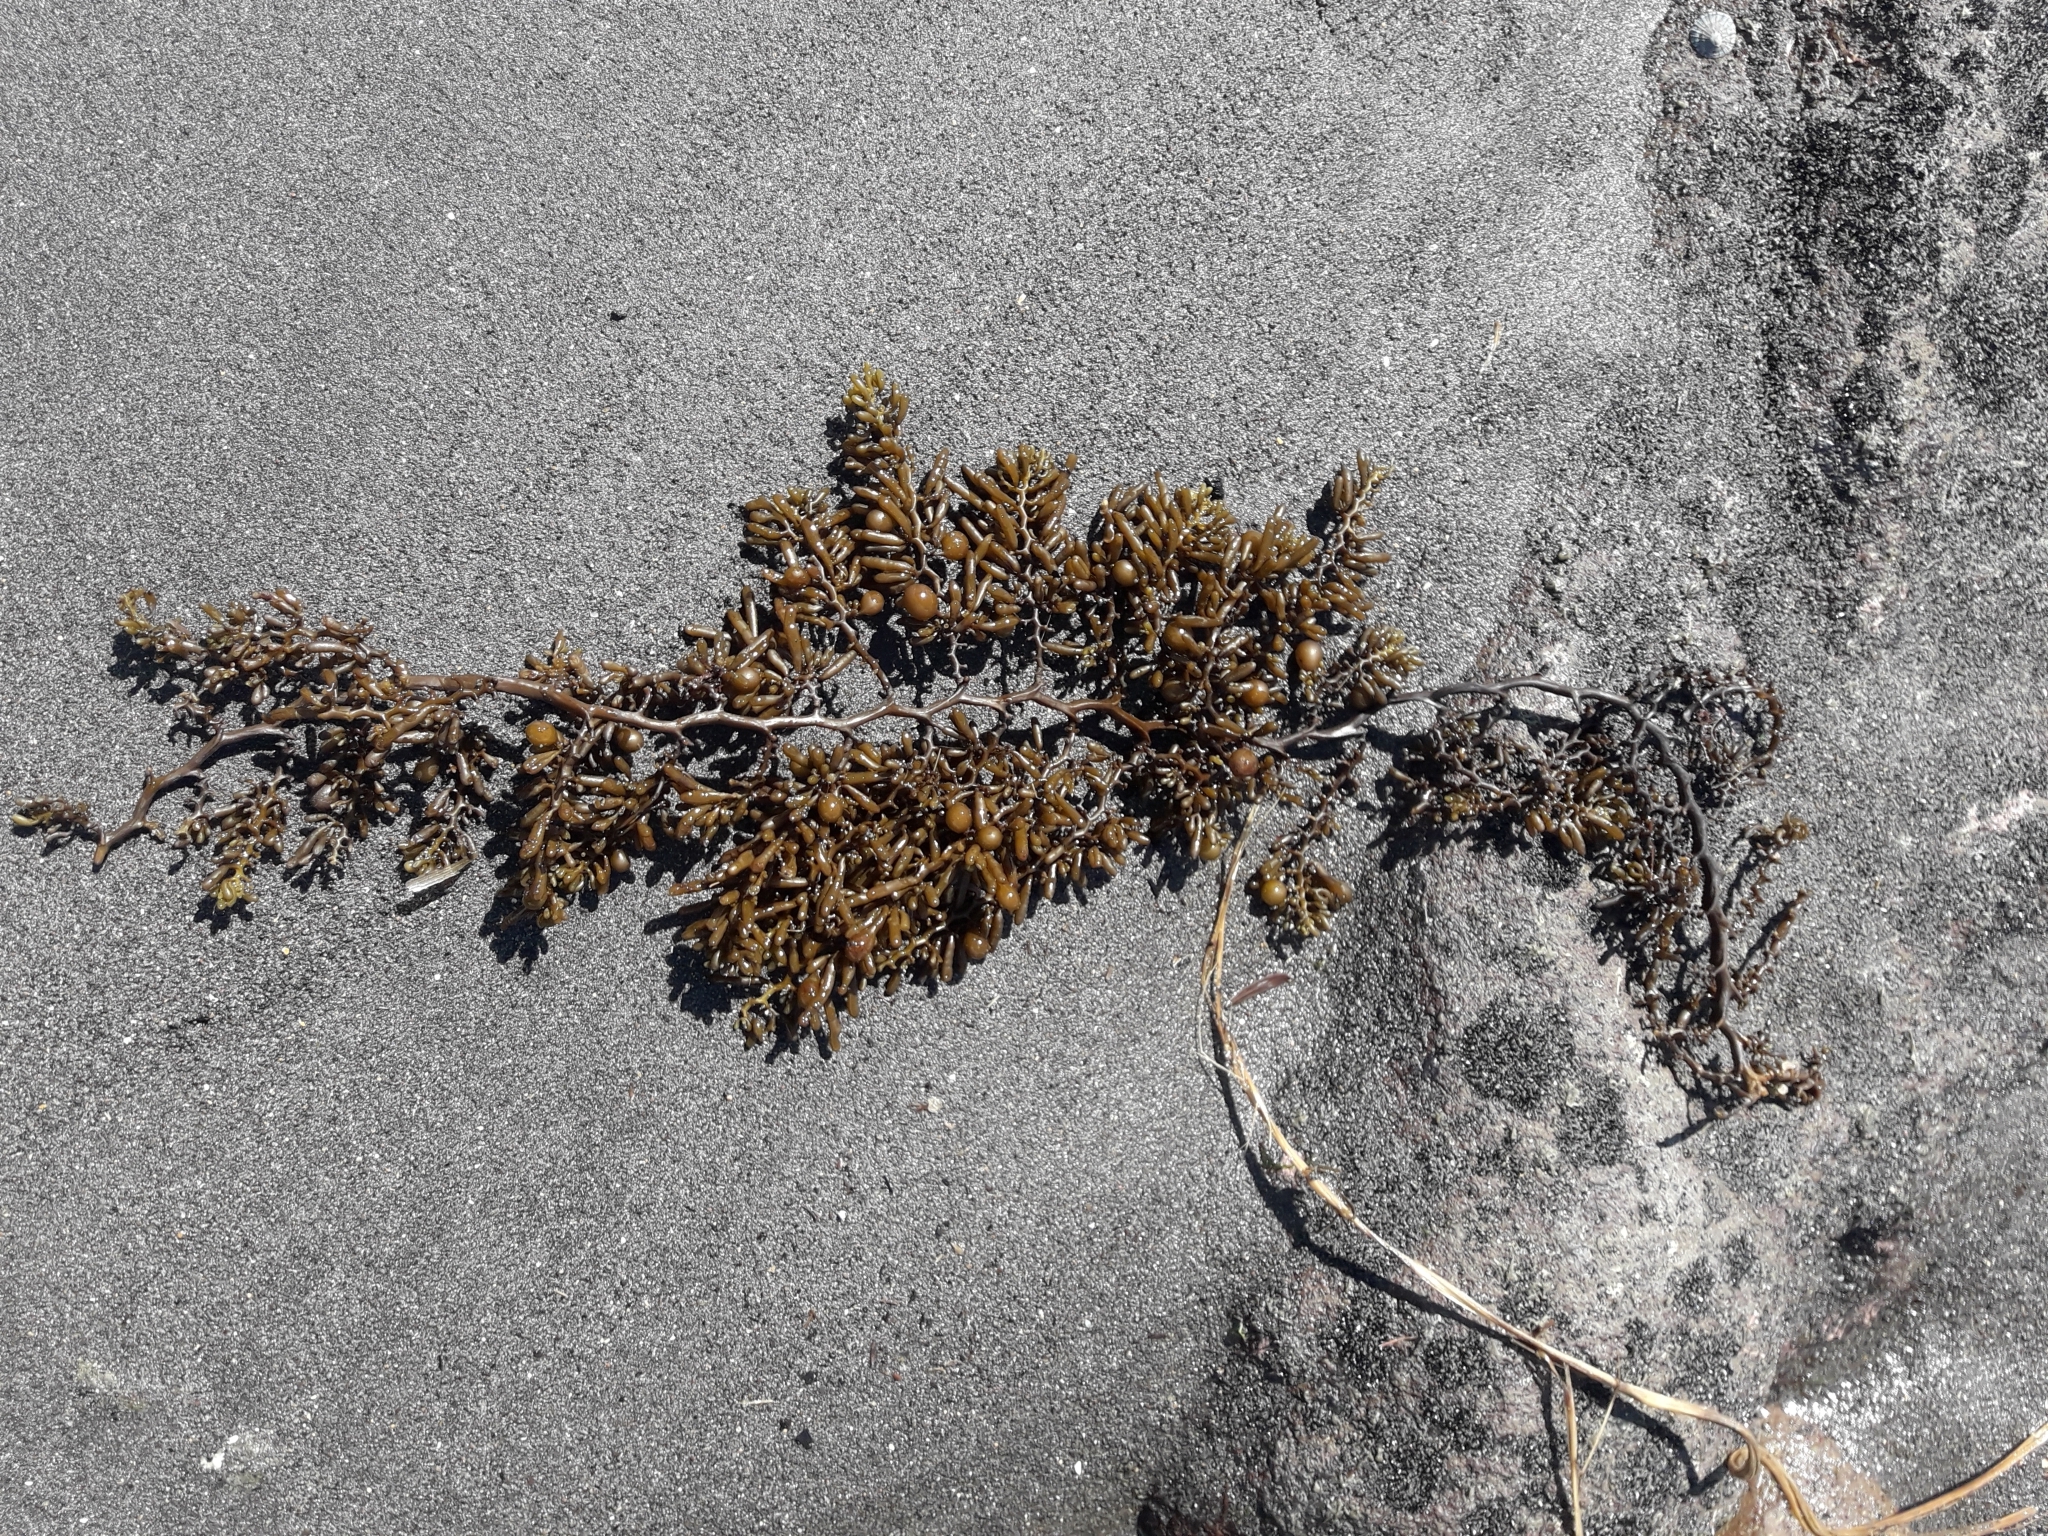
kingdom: Chromista
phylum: Ochrophyta
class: Phaeophyceae
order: Fucales
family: Sargassaceae
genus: Cystophora
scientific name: Cystophora torulosa
